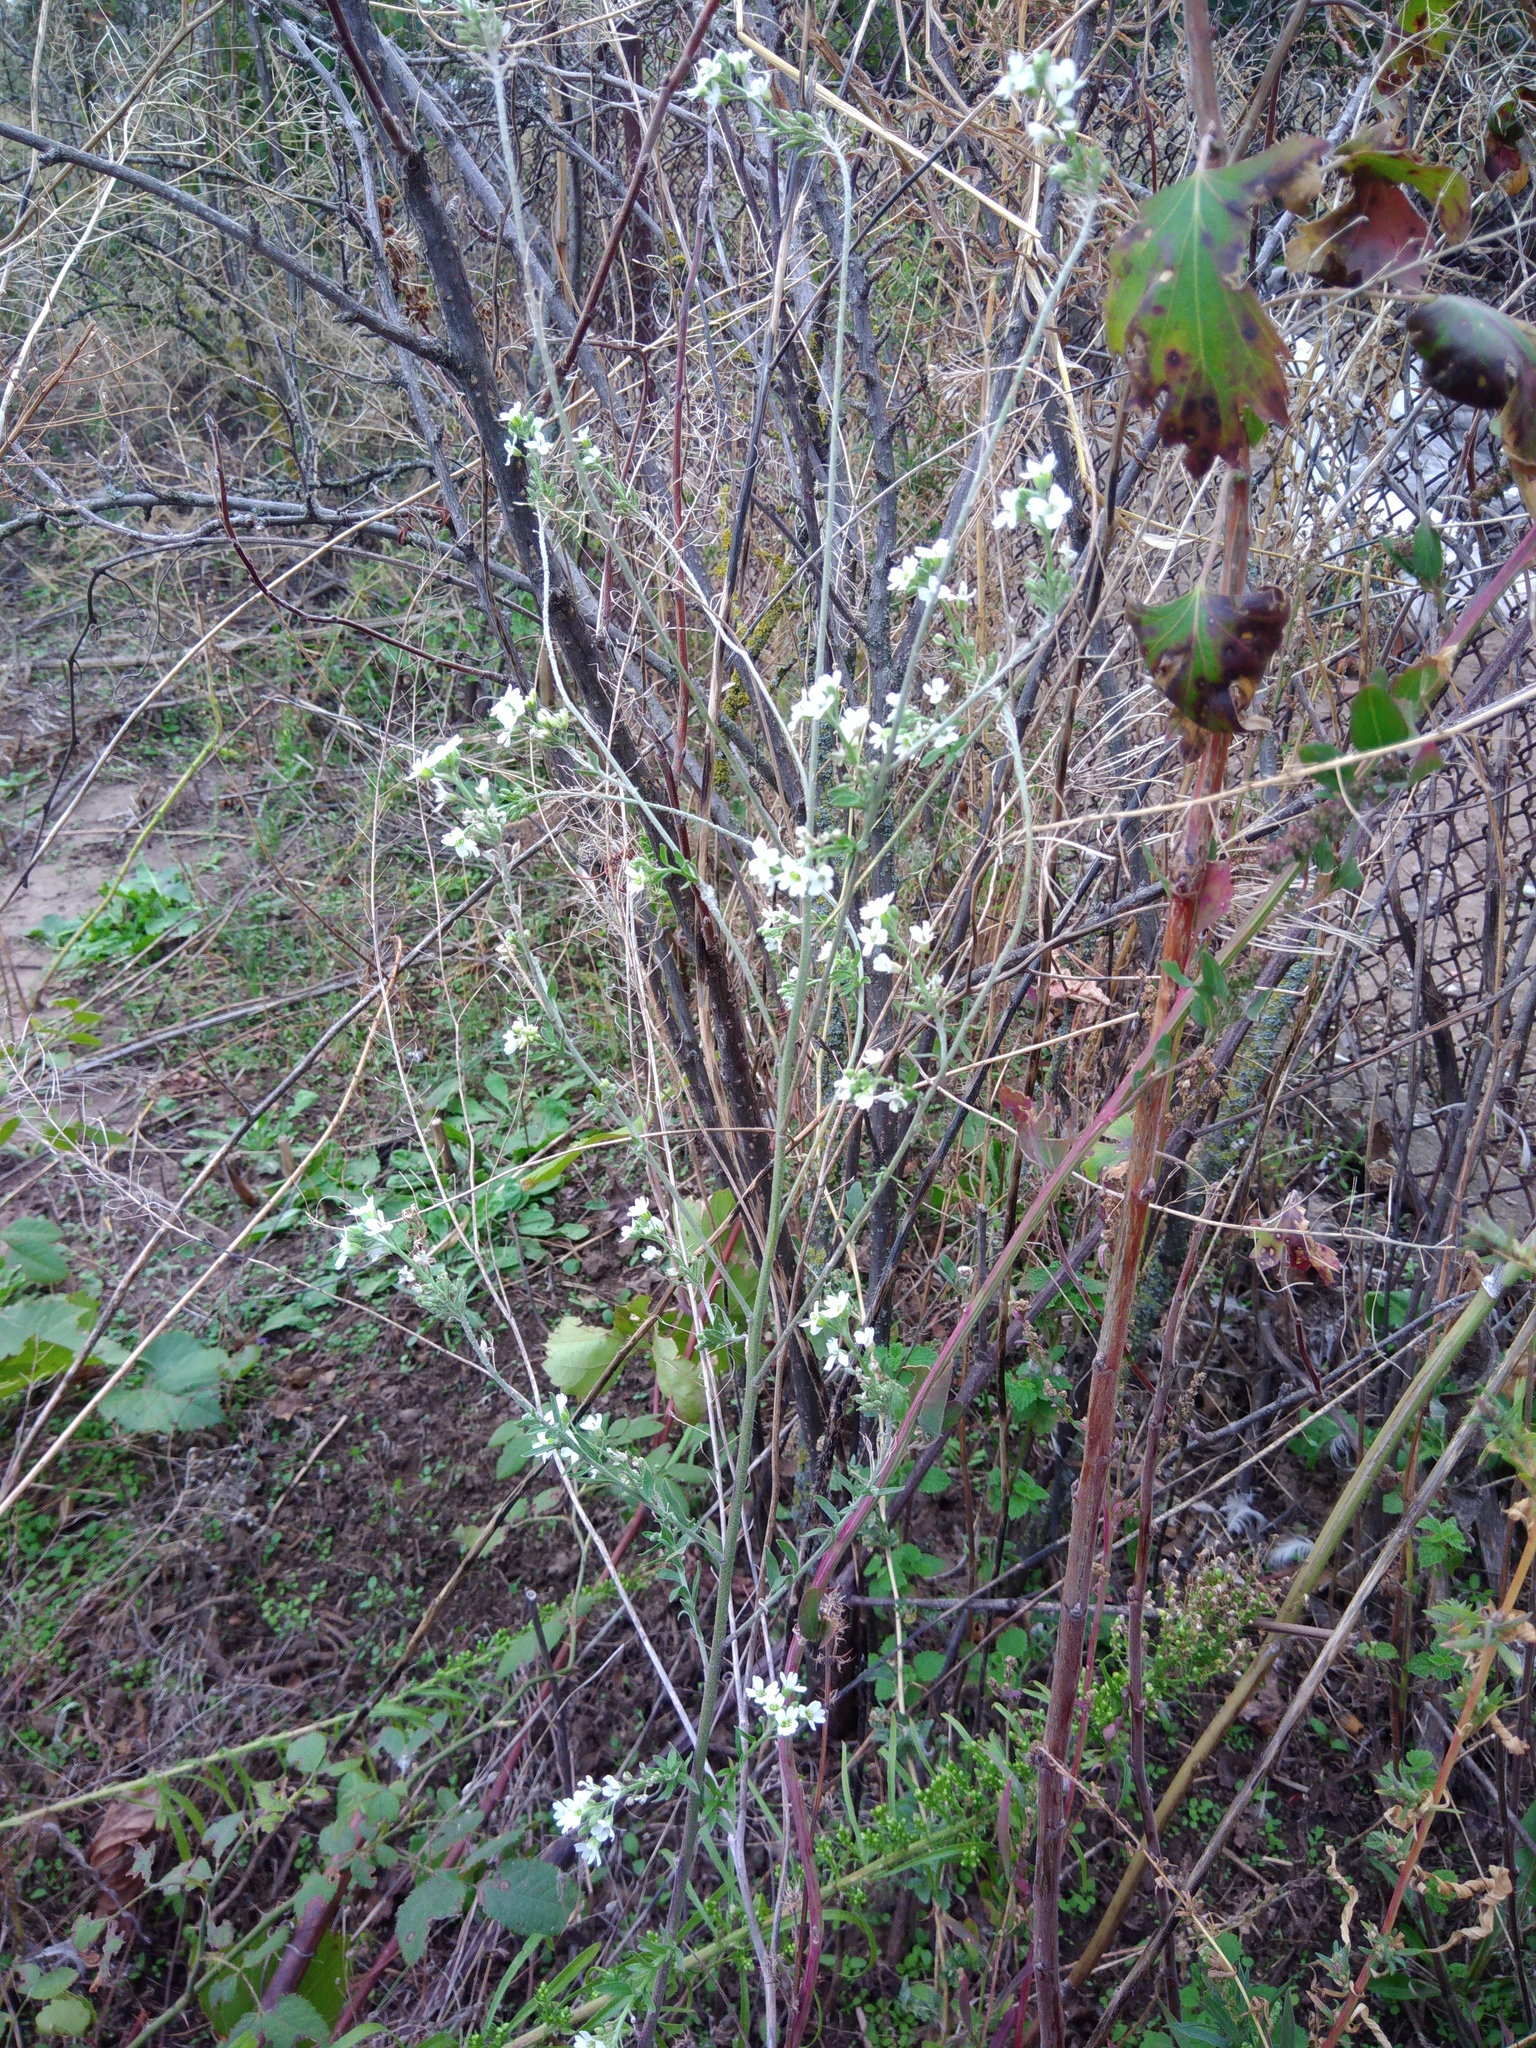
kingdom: Plantae
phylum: Tracheophyta
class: Magnoliopsida
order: Brassicales
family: Brassicaceae
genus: Berteroa
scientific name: Berteroa incana
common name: Hoary alison
